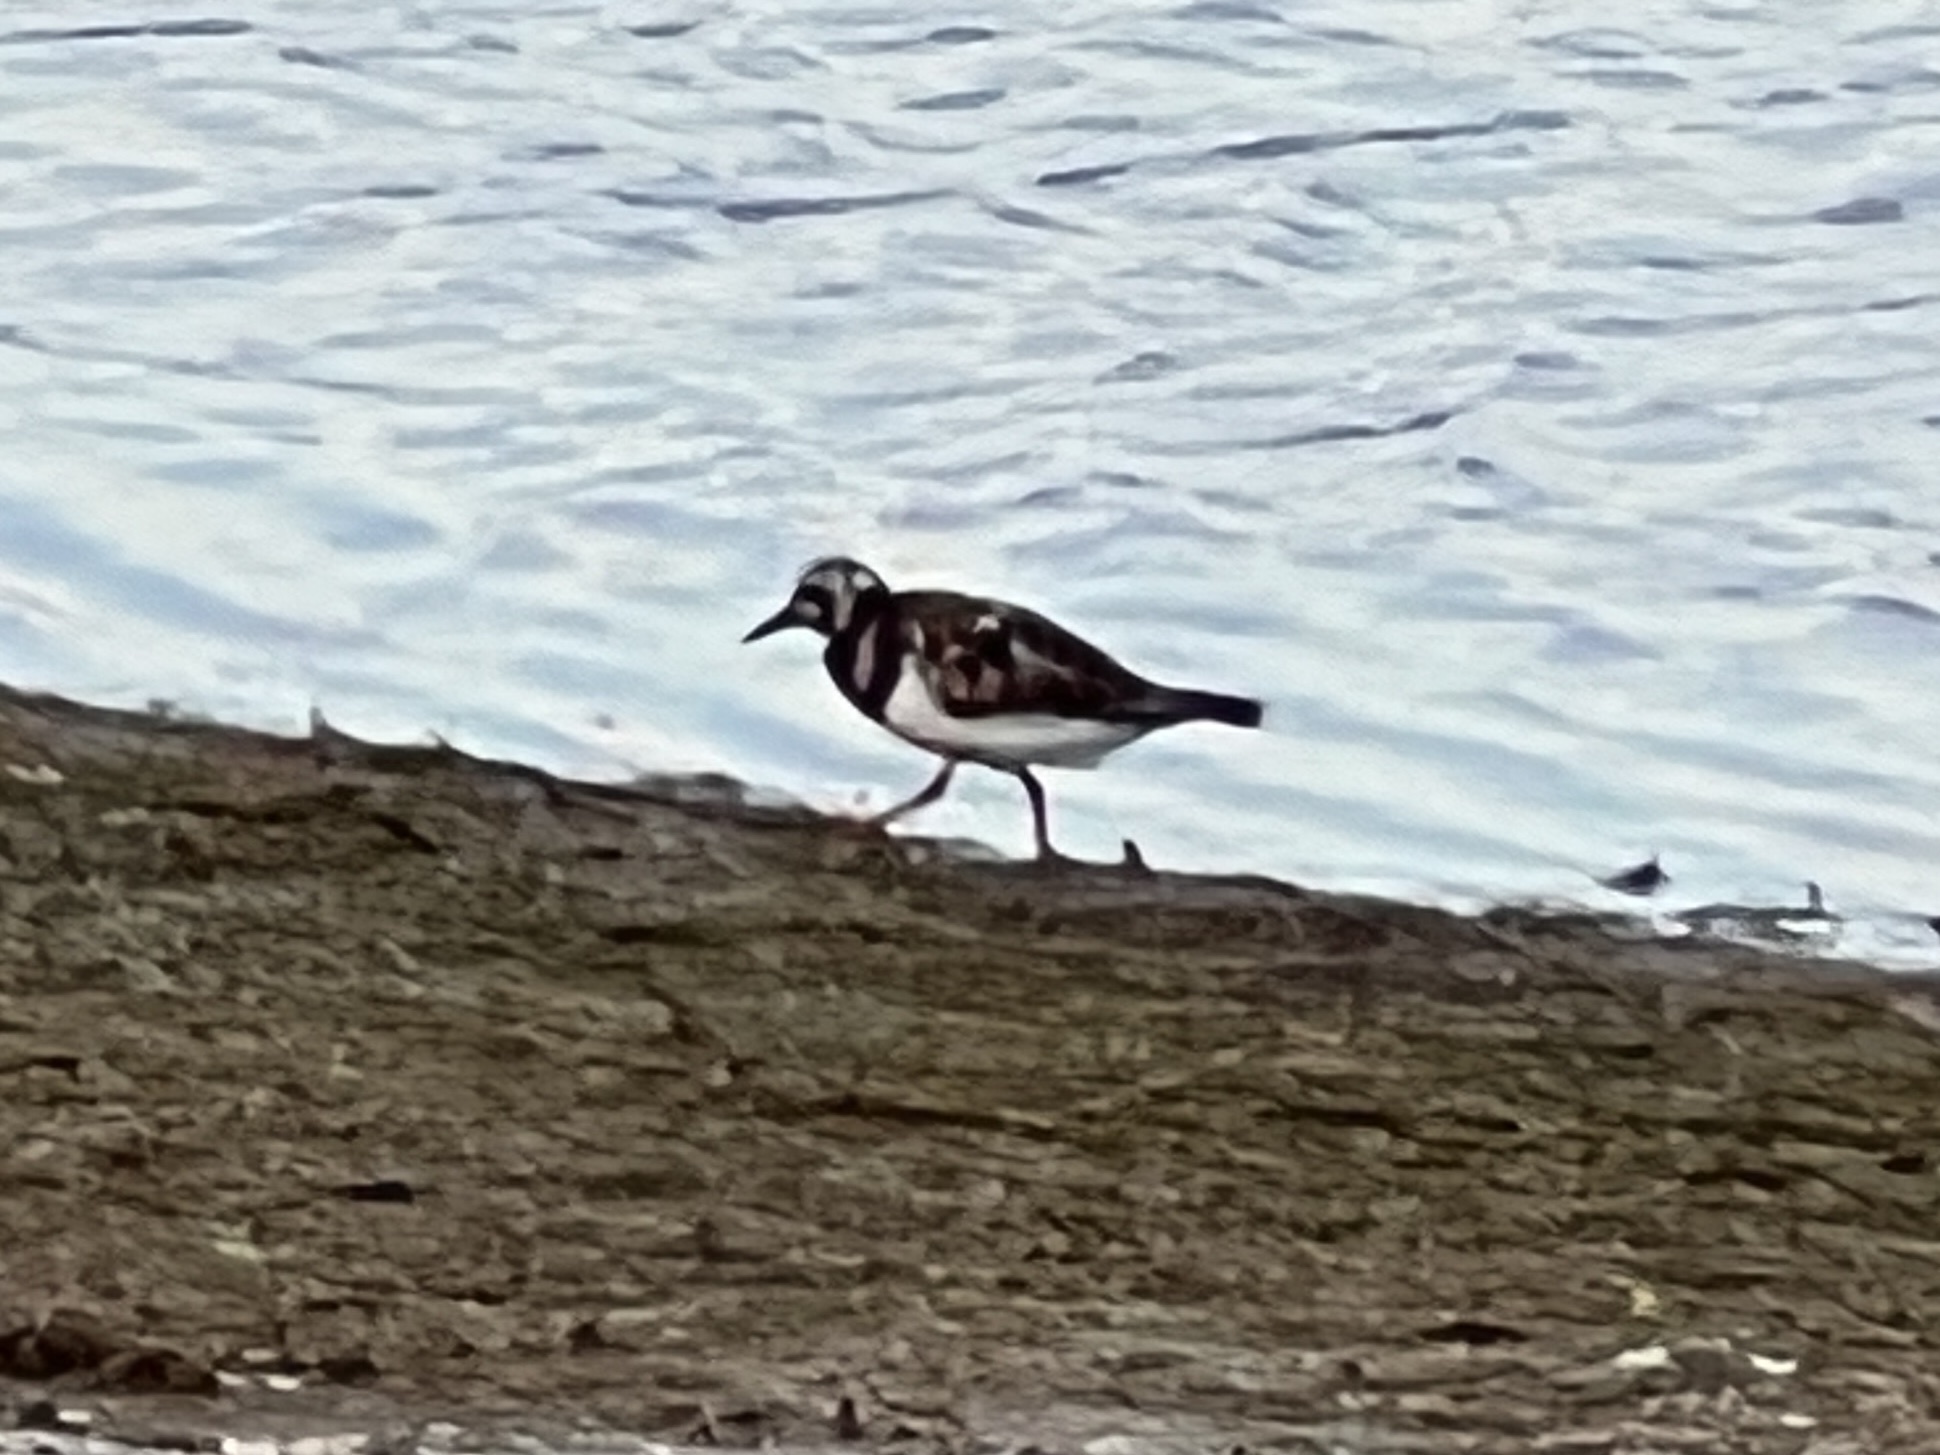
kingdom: Animalia
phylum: Chordata
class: Aves
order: Charadriiformes
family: Scolopacidae
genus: Arenaria
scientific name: Arenaria interpres
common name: Ruddy turnstone
